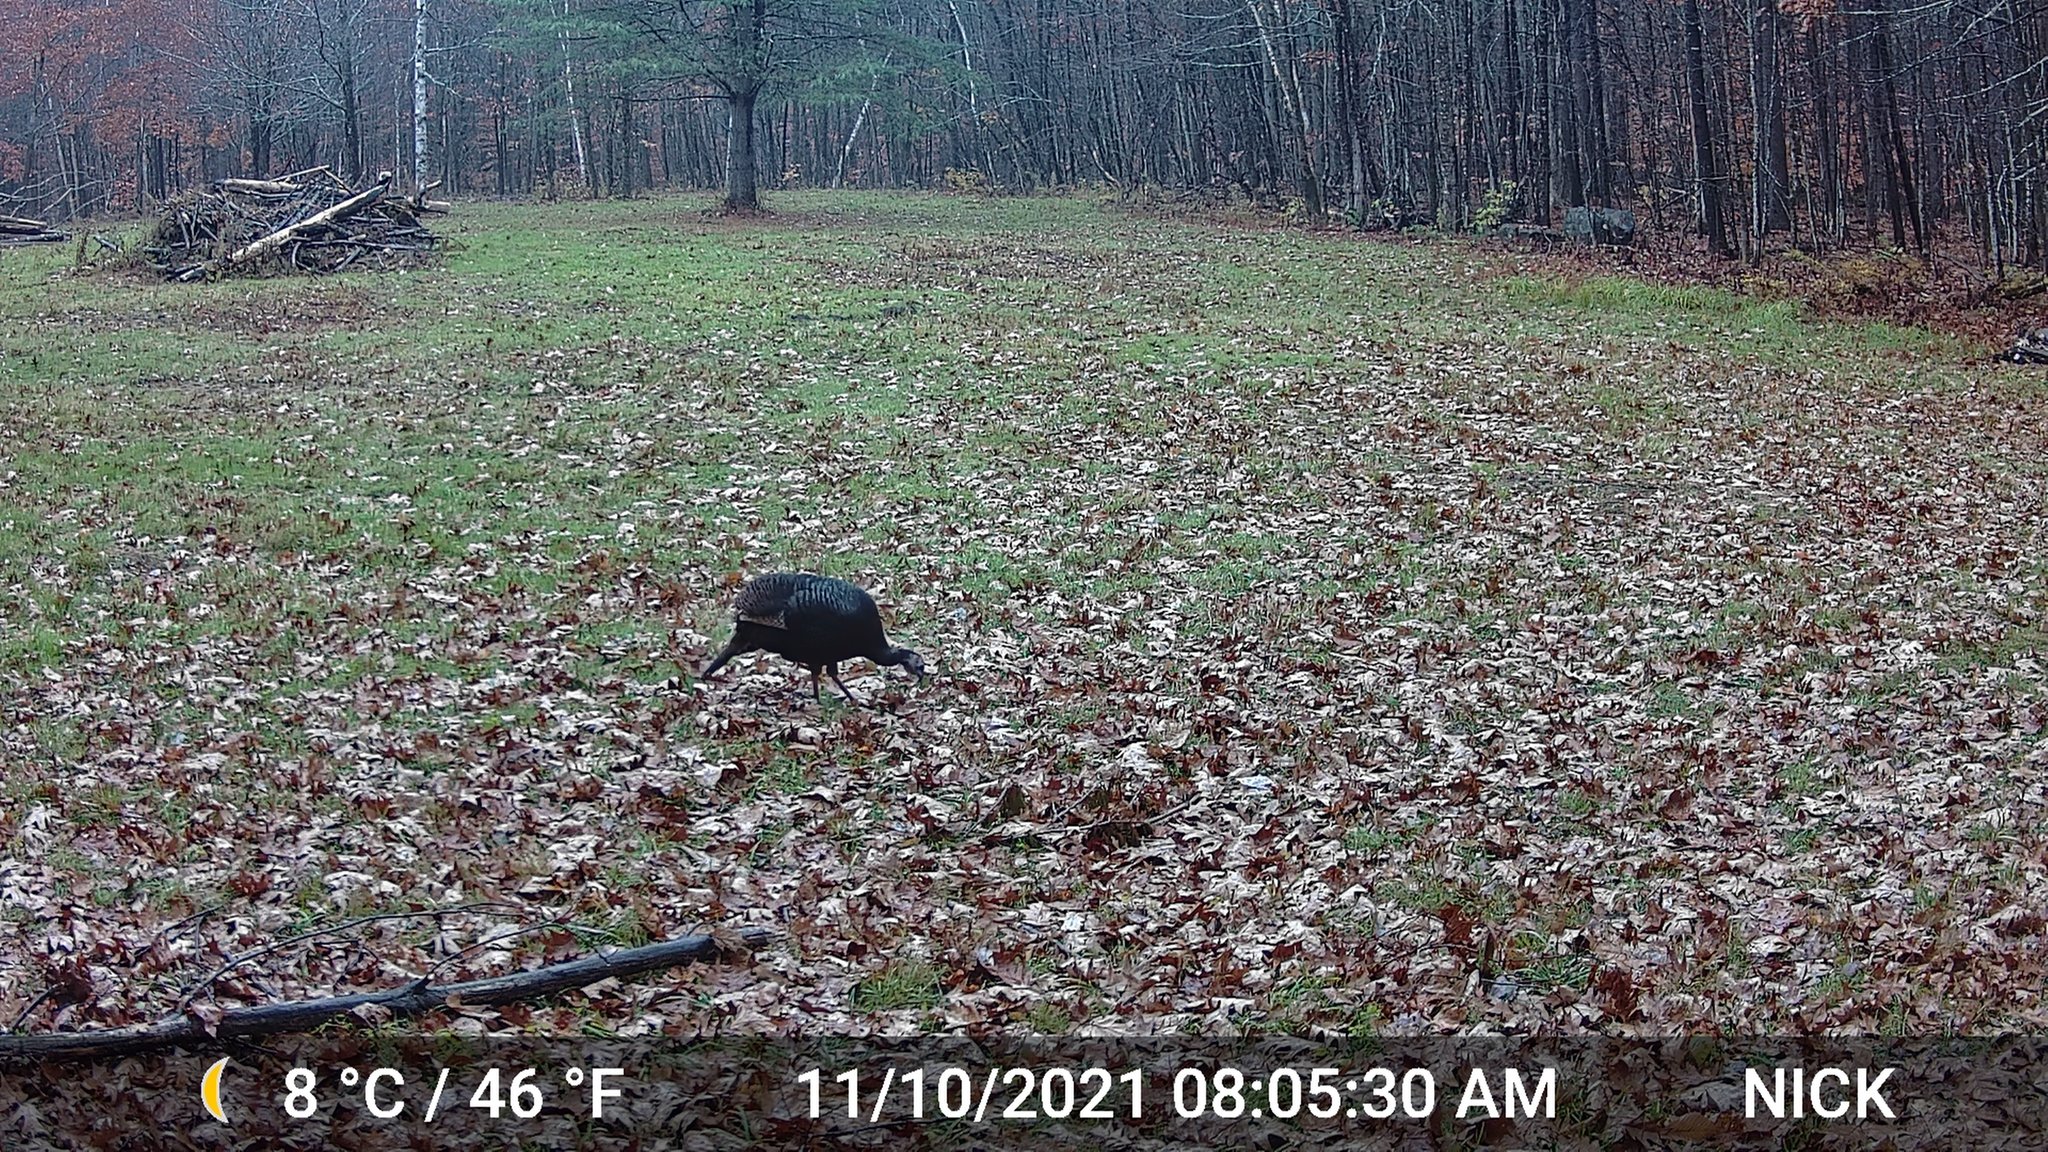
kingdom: Animalia
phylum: Chordata
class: Aves
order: Galliformes
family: Phasianidae
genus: Meleagris
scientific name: Meleagris gallopavo
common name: Wild turkey
